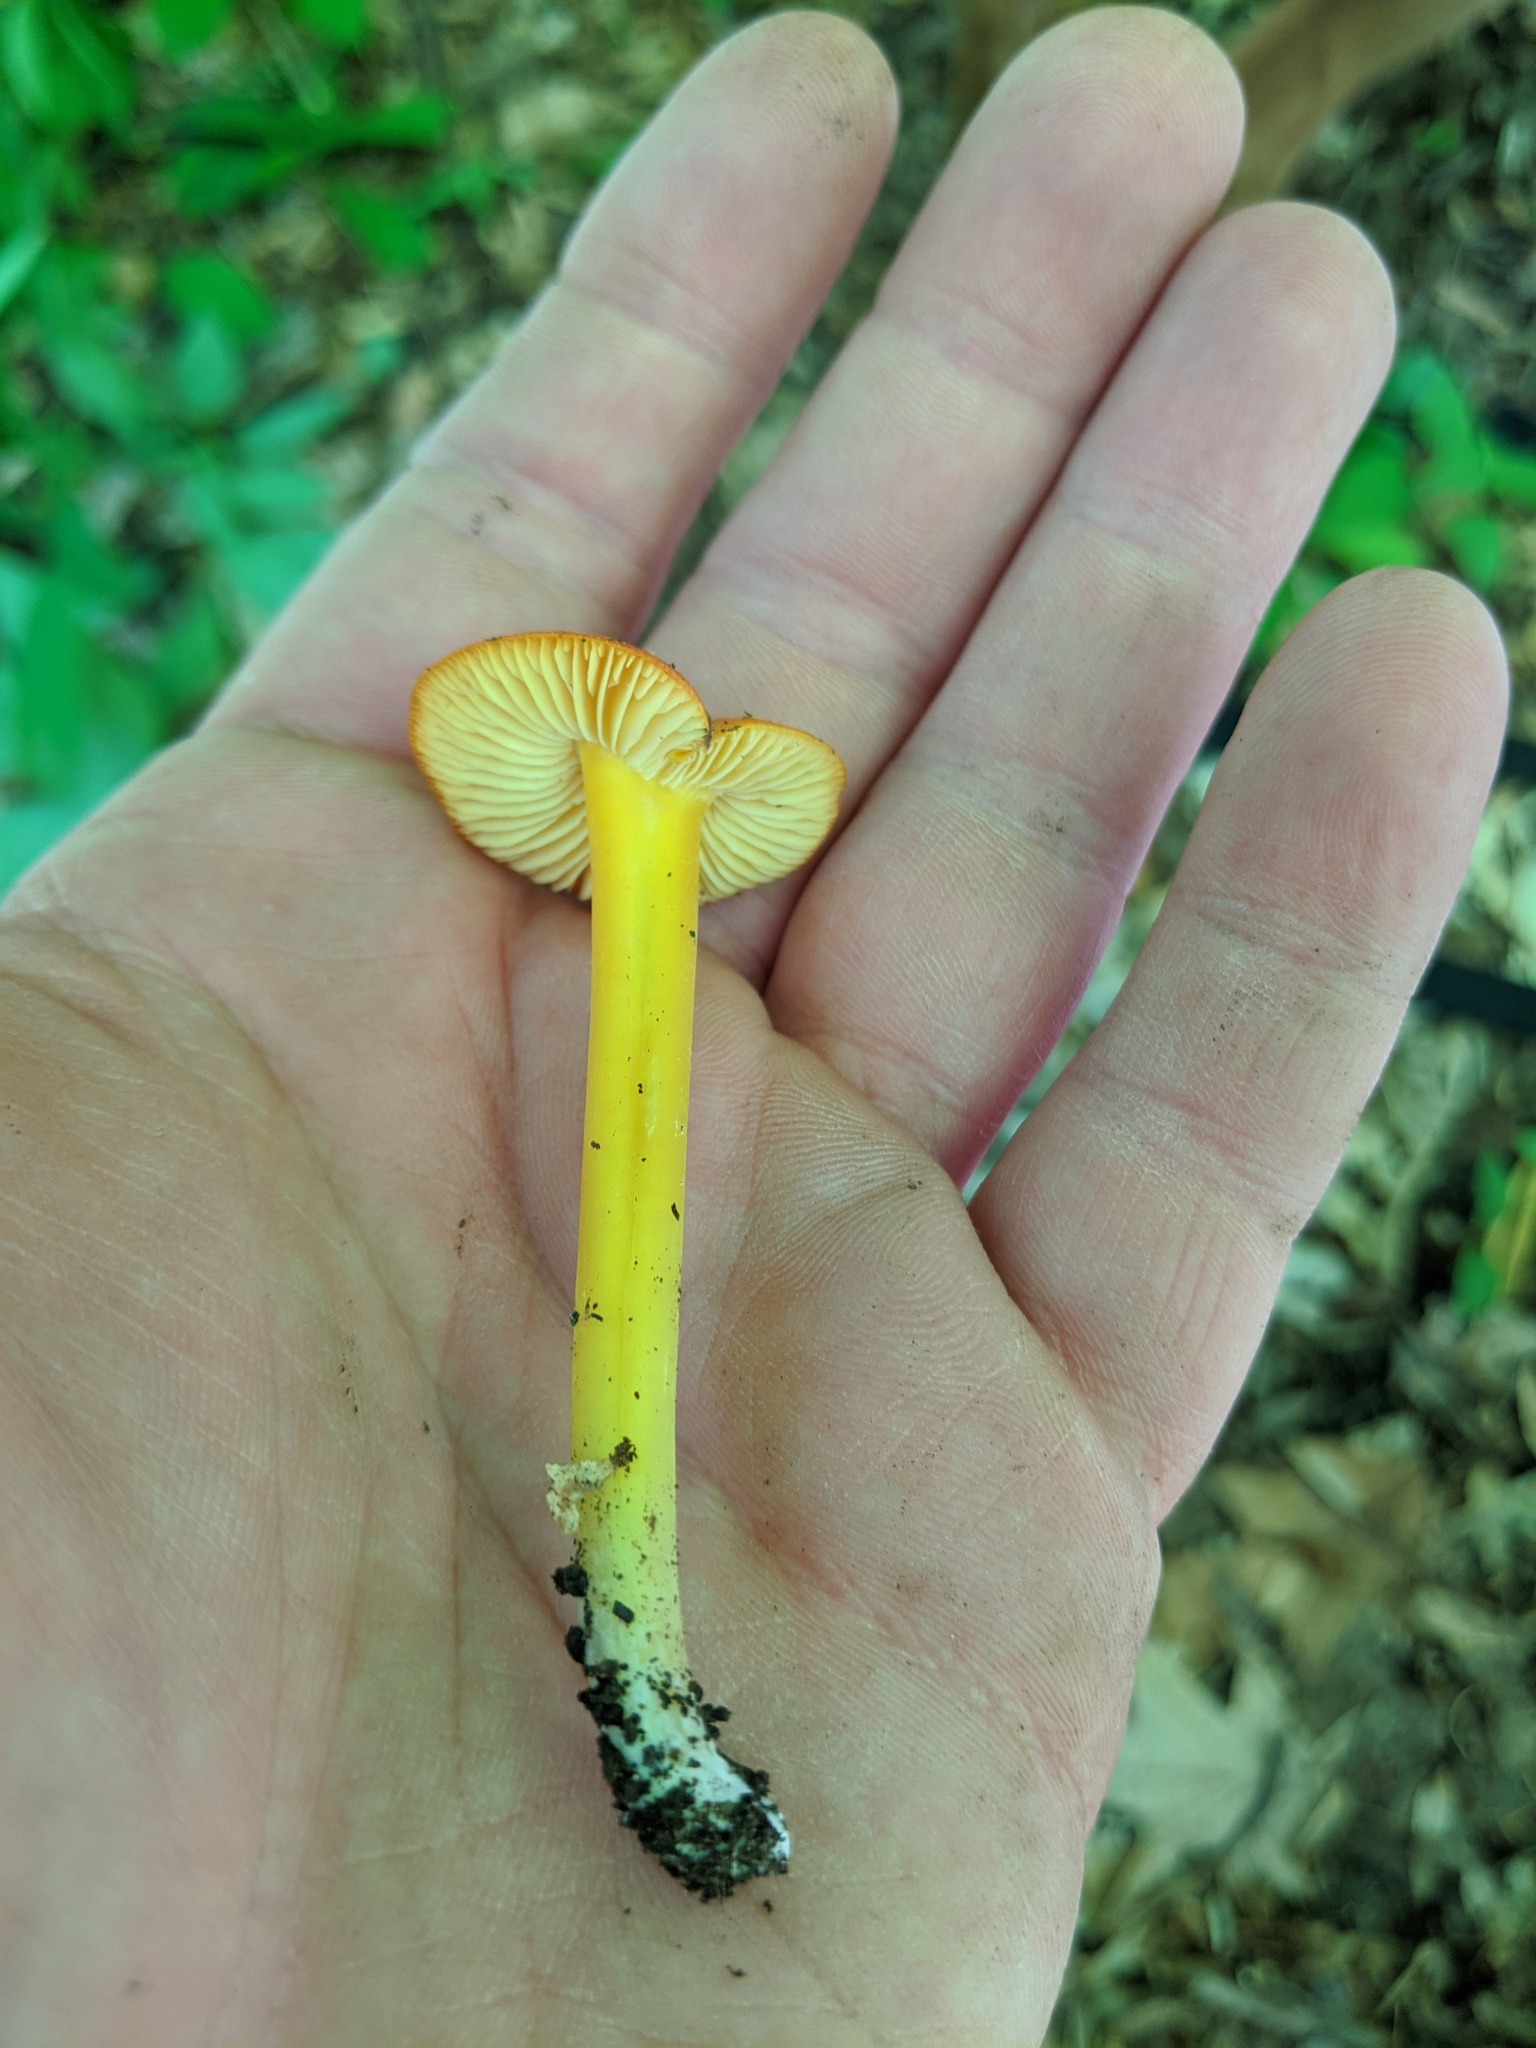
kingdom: Fungi
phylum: Basidiomycota
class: Agaricomycetes
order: Agaricales
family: Hygrophoraceae
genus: Hygrocybe
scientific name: Hygrocybe flavescens
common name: Golden waxy cap
